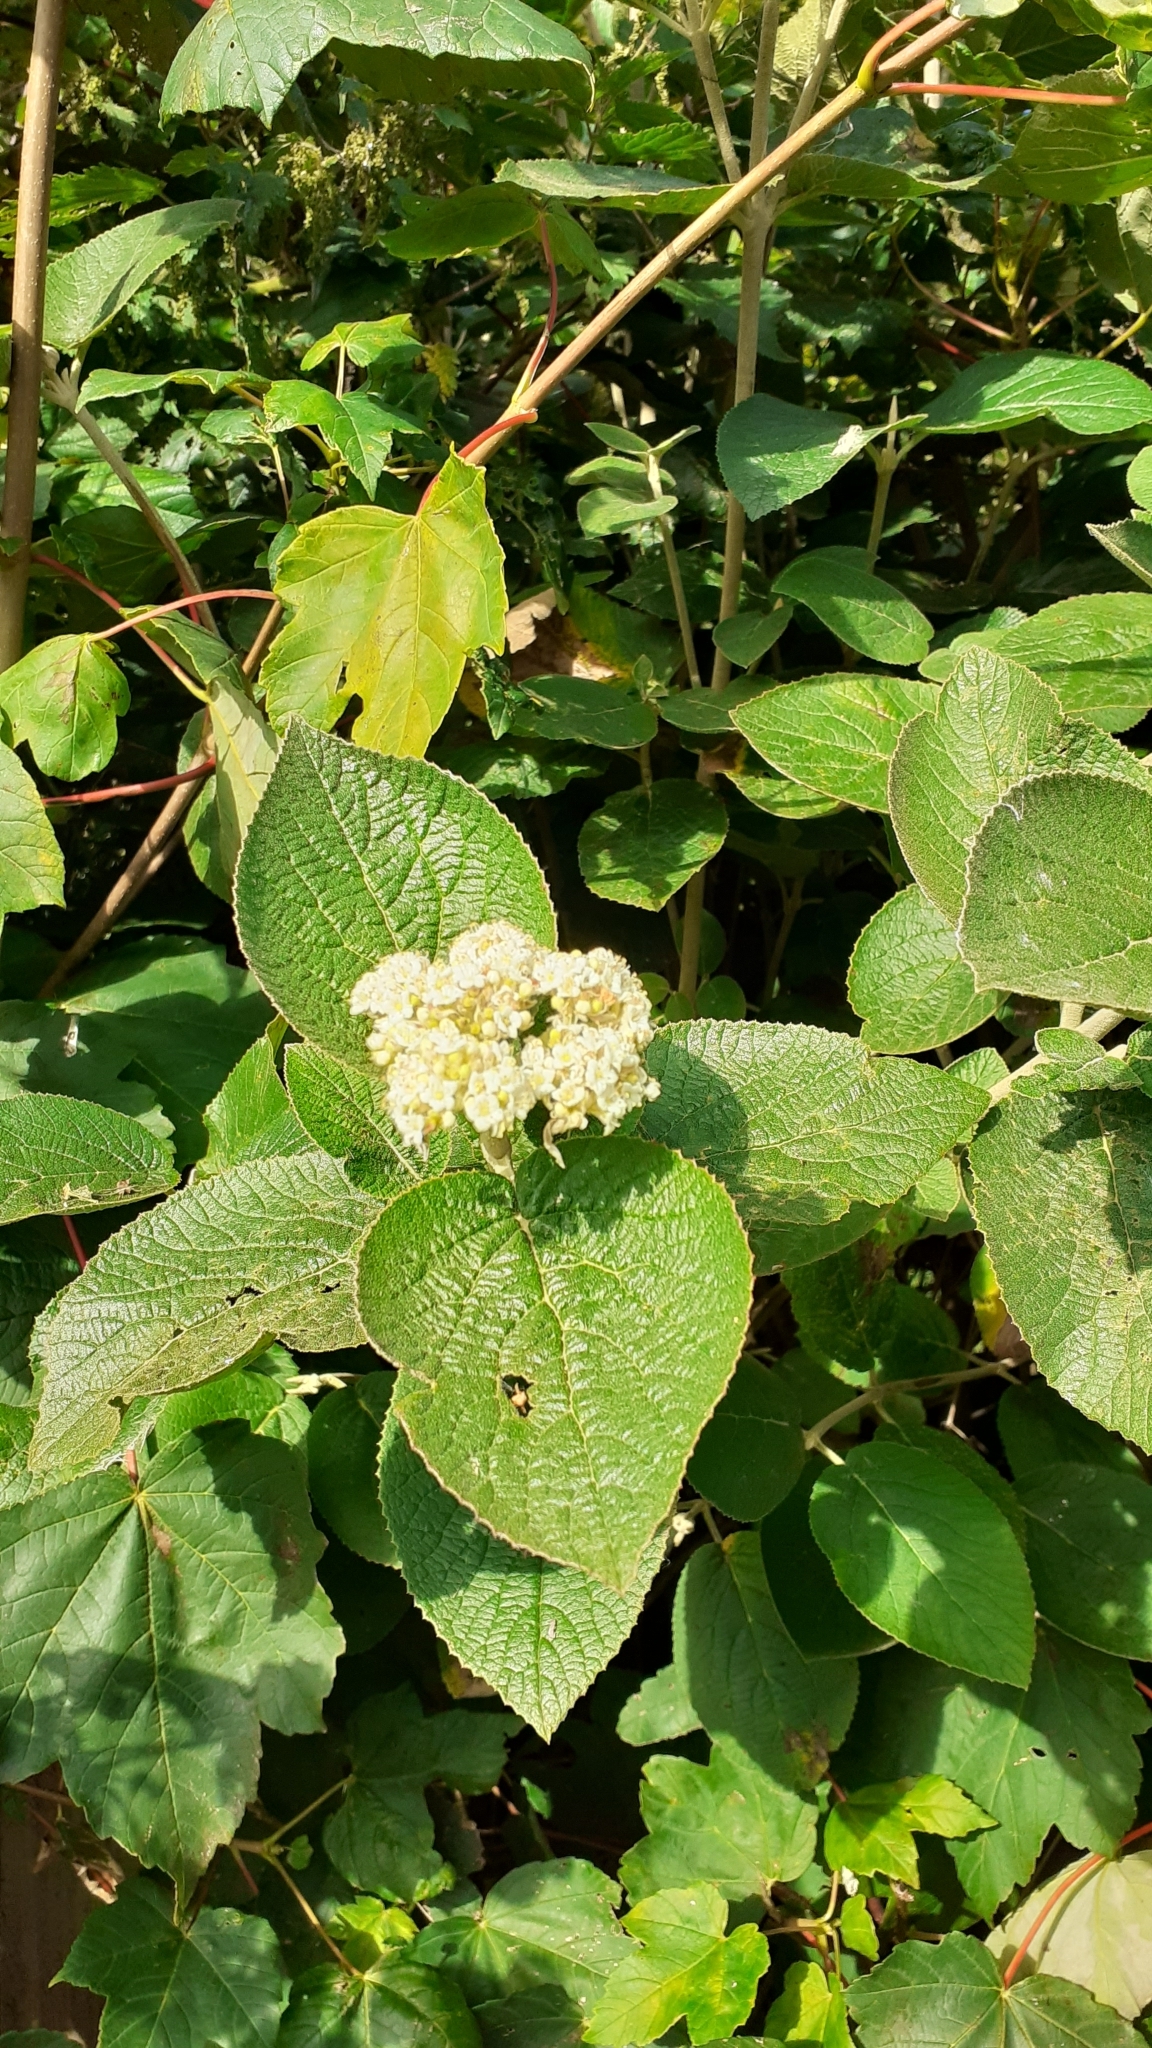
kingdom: Plantae
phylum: Tracheophyta
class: Magnoliopsida
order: Dipsacales
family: Viburnaceae
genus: Viburnum
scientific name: Viburnum lantana
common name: Wayfaring tree
